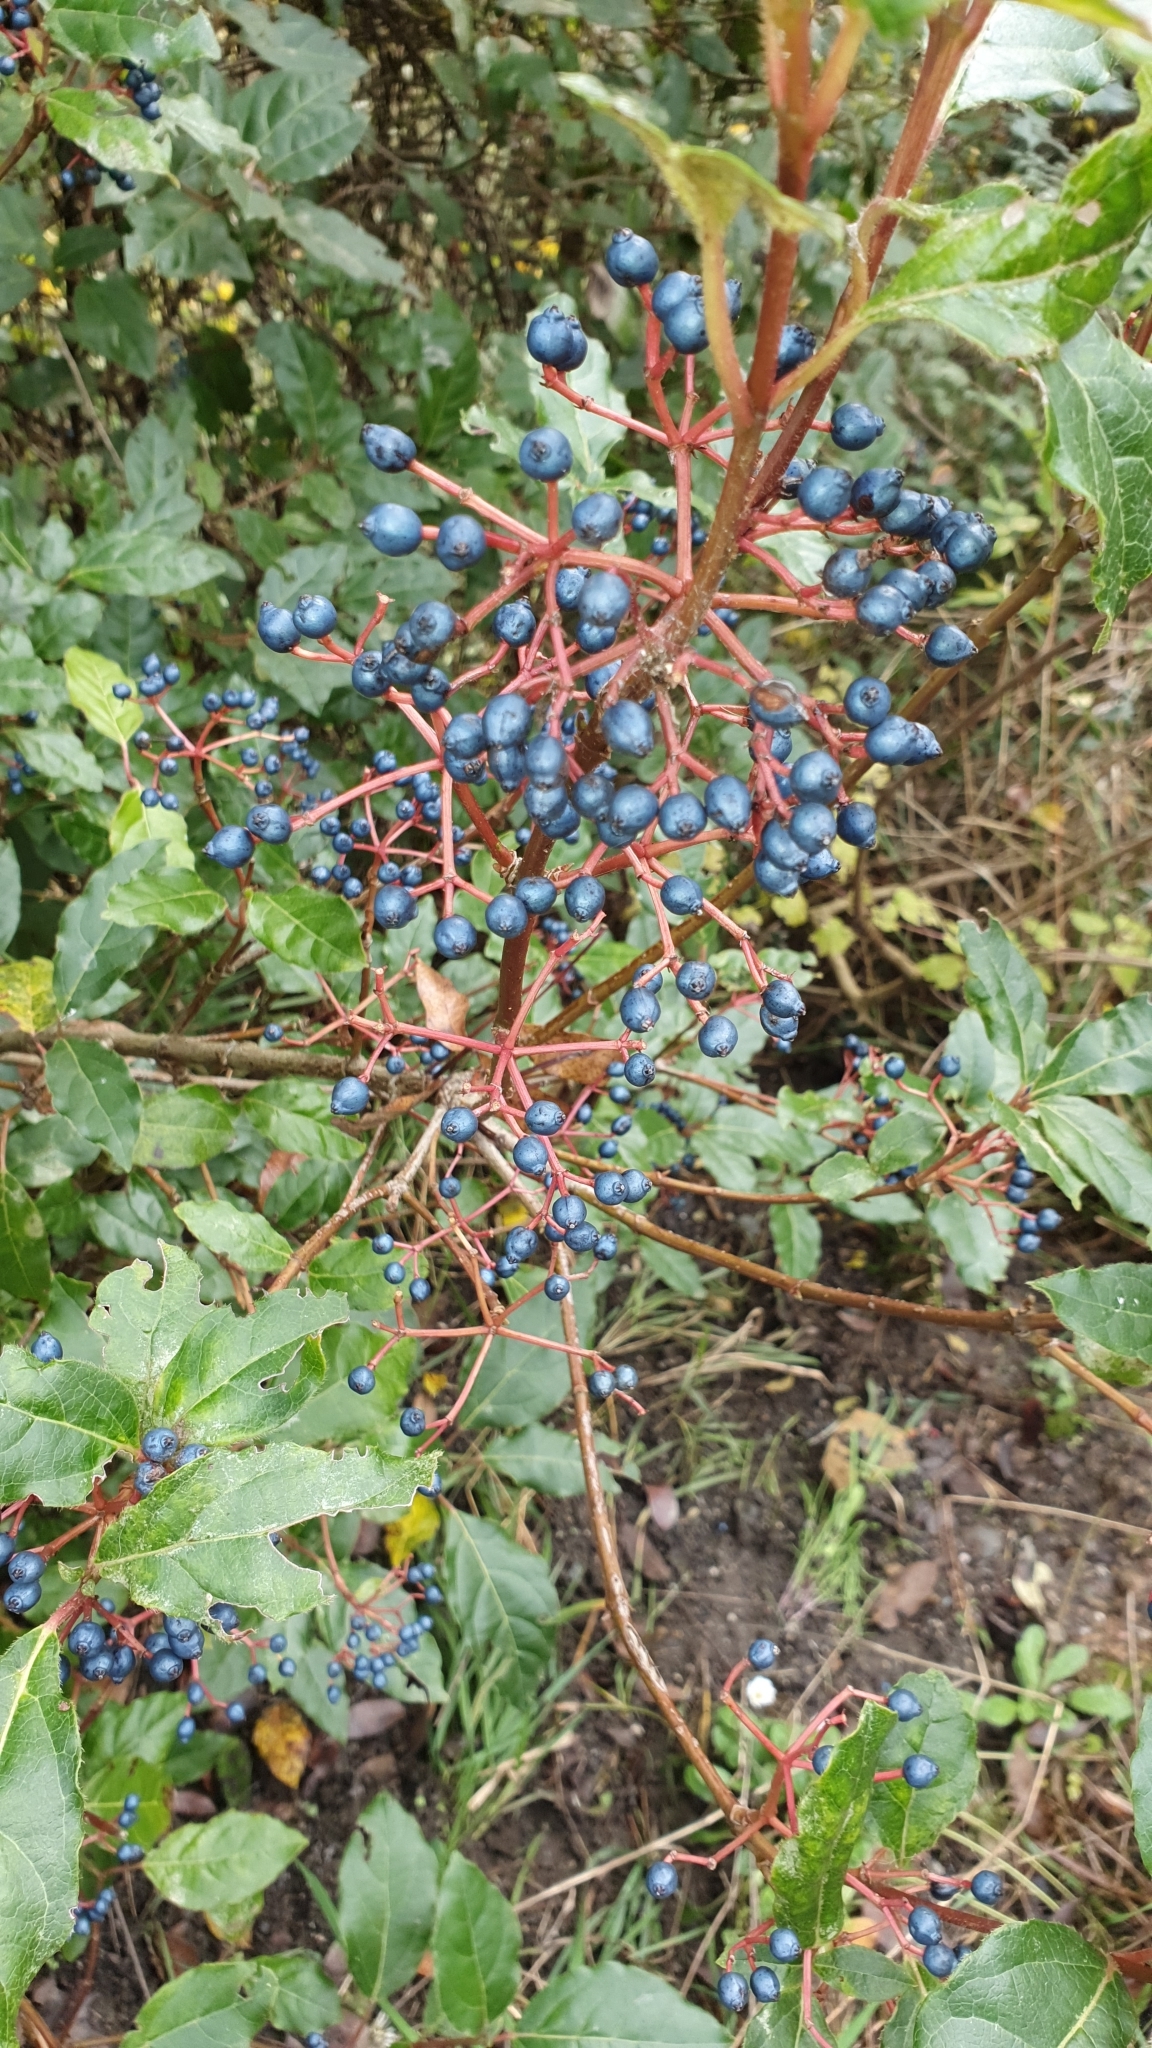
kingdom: Plantae
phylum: Tracheophyta
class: Magnoliopsida
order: Dipsacales
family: Viburnaceae
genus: Viburnum
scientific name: Viburnum tinus
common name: Laurustinus
